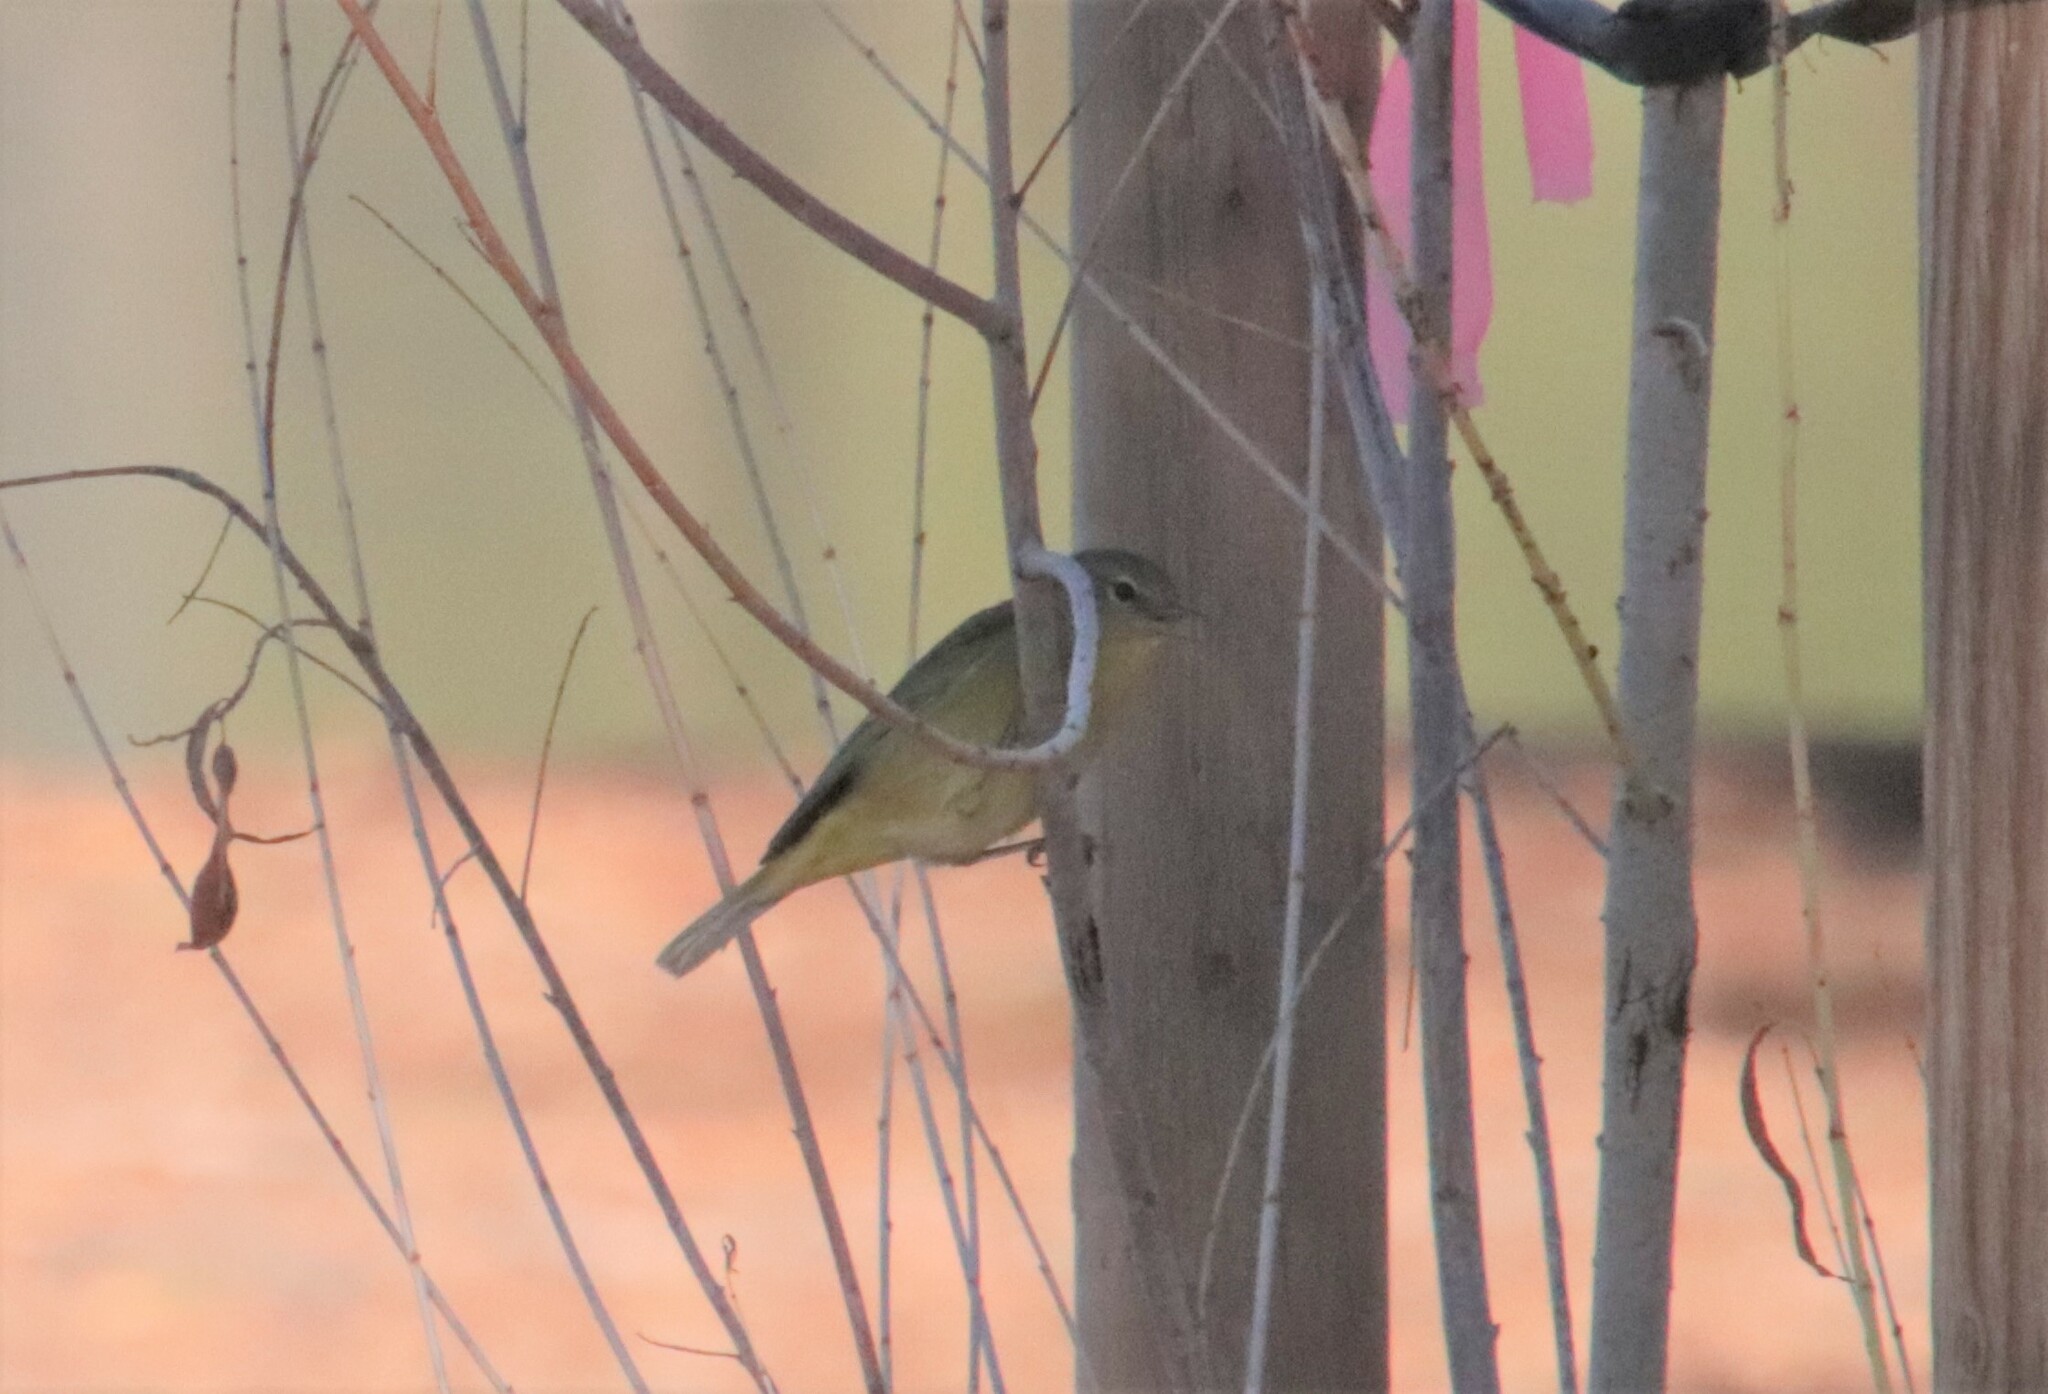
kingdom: Animalia
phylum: Chordata
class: Aves
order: Passeriformes
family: Parulidae
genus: Leiothlypis
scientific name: Leiothlypis celata
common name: Orange-crowned warbler
